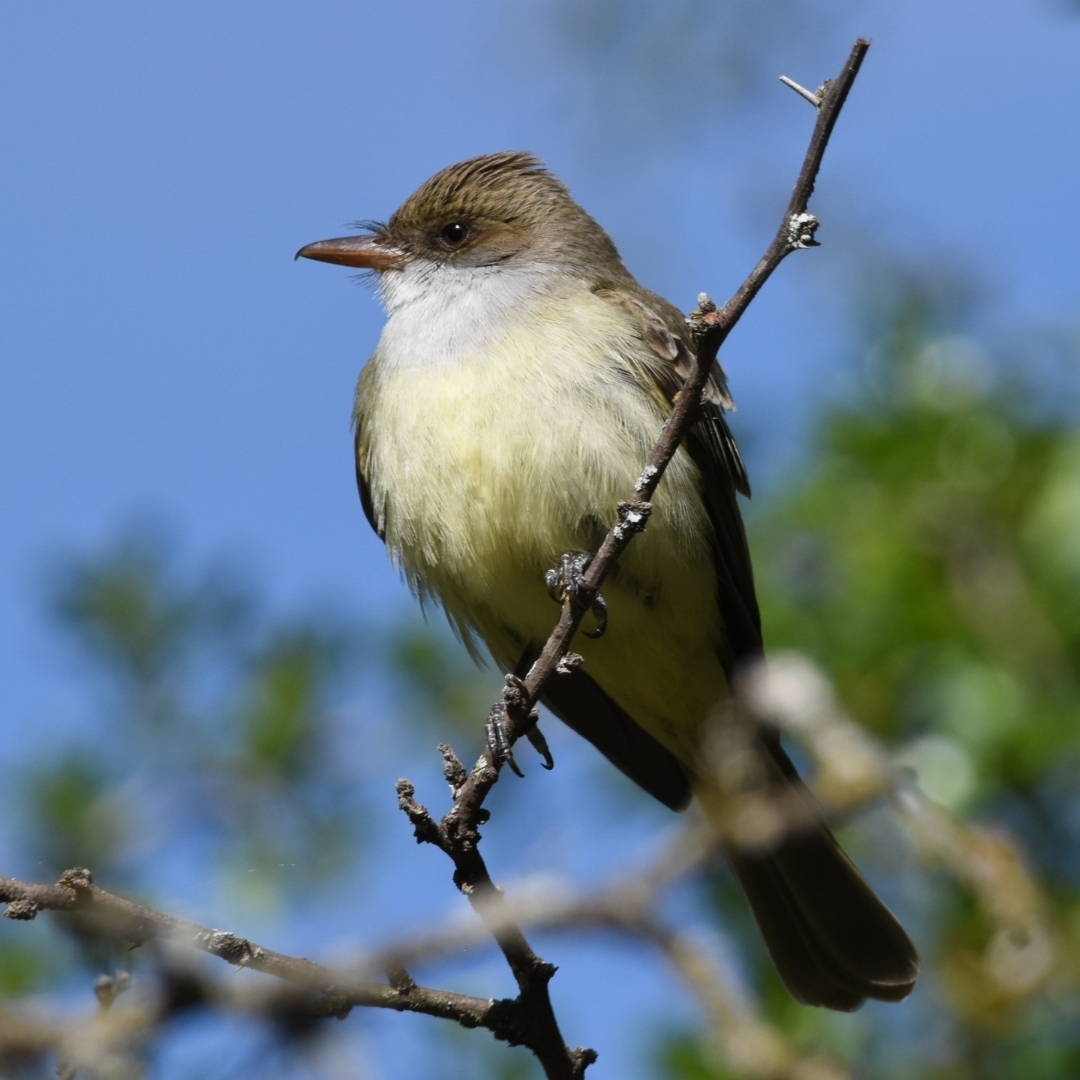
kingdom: Animalia
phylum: Chordata
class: Aves
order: Passeriformes
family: Tyrannidae
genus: Myiarchus
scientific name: Myiarchus swainsoni
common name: Swainson's flycatcher
